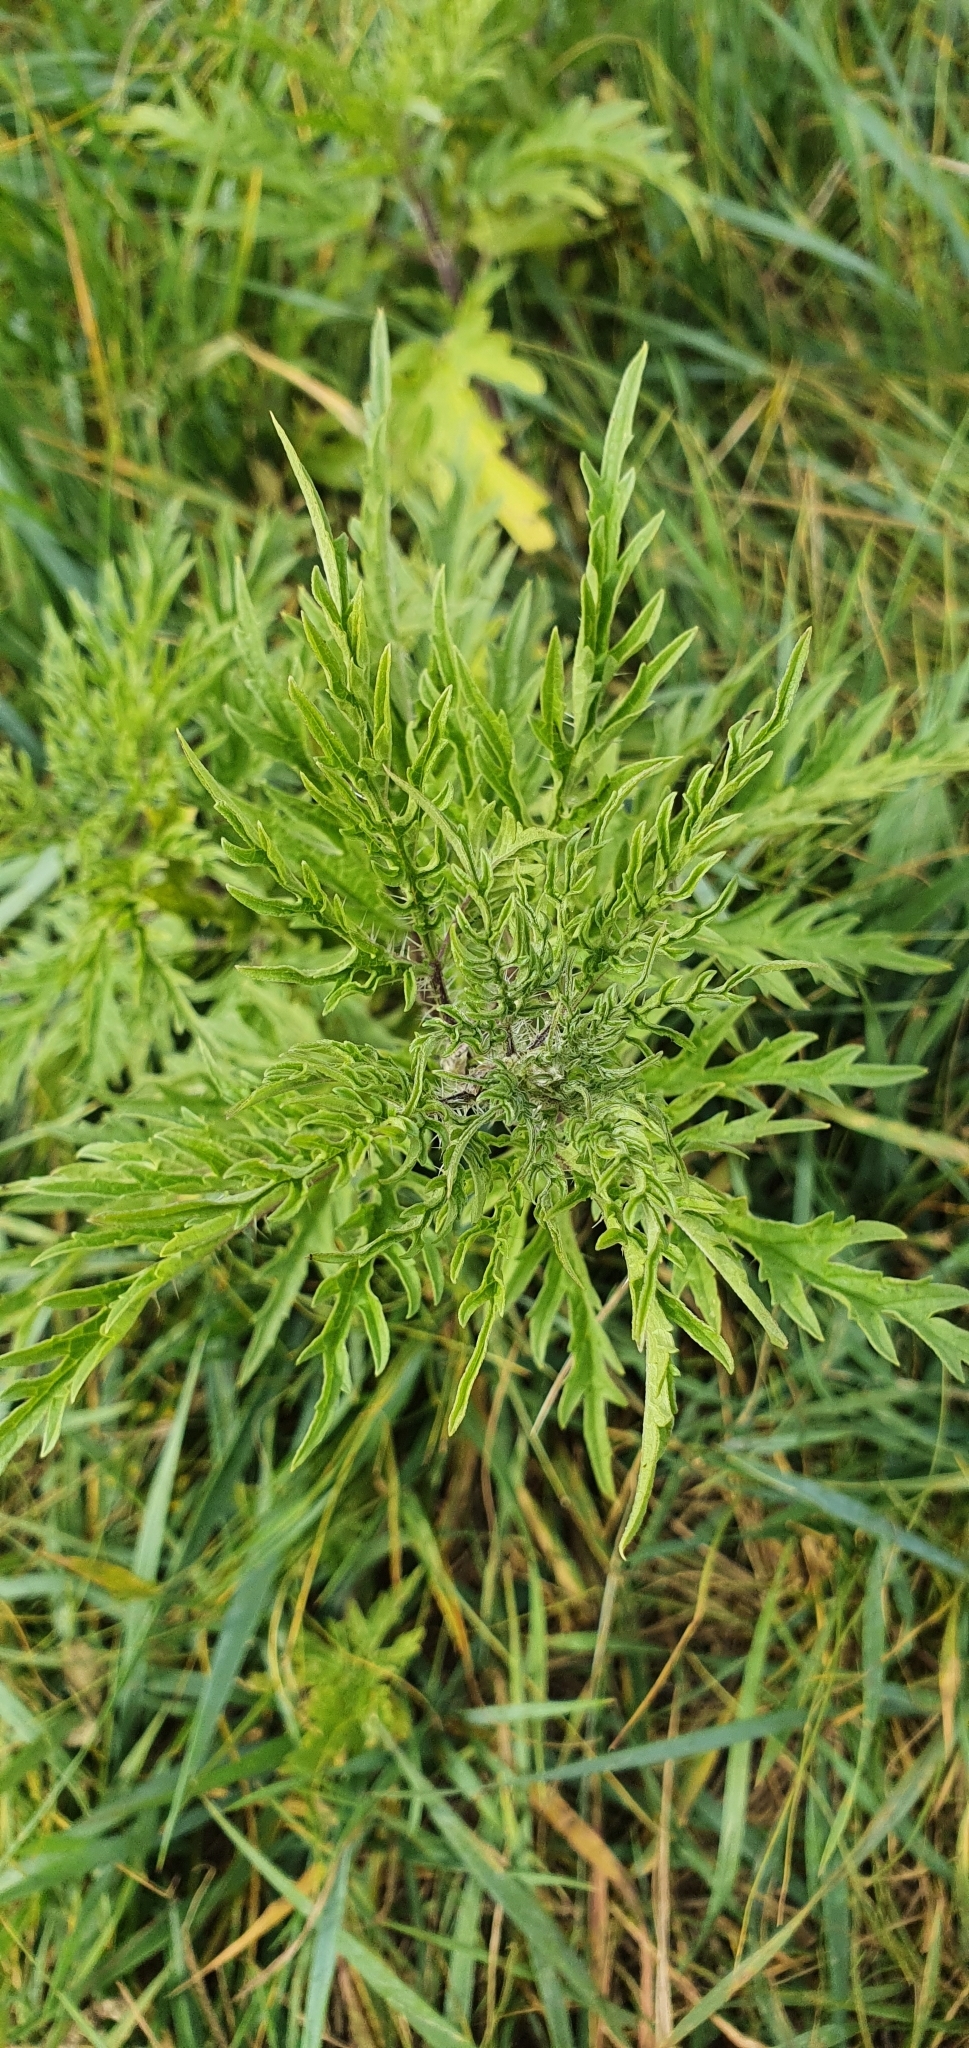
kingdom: Plantae
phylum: Tracheophyta
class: Magnoliopsida
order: Rosales
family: Urticaceae
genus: Urtica
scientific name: Urtica cannabina
